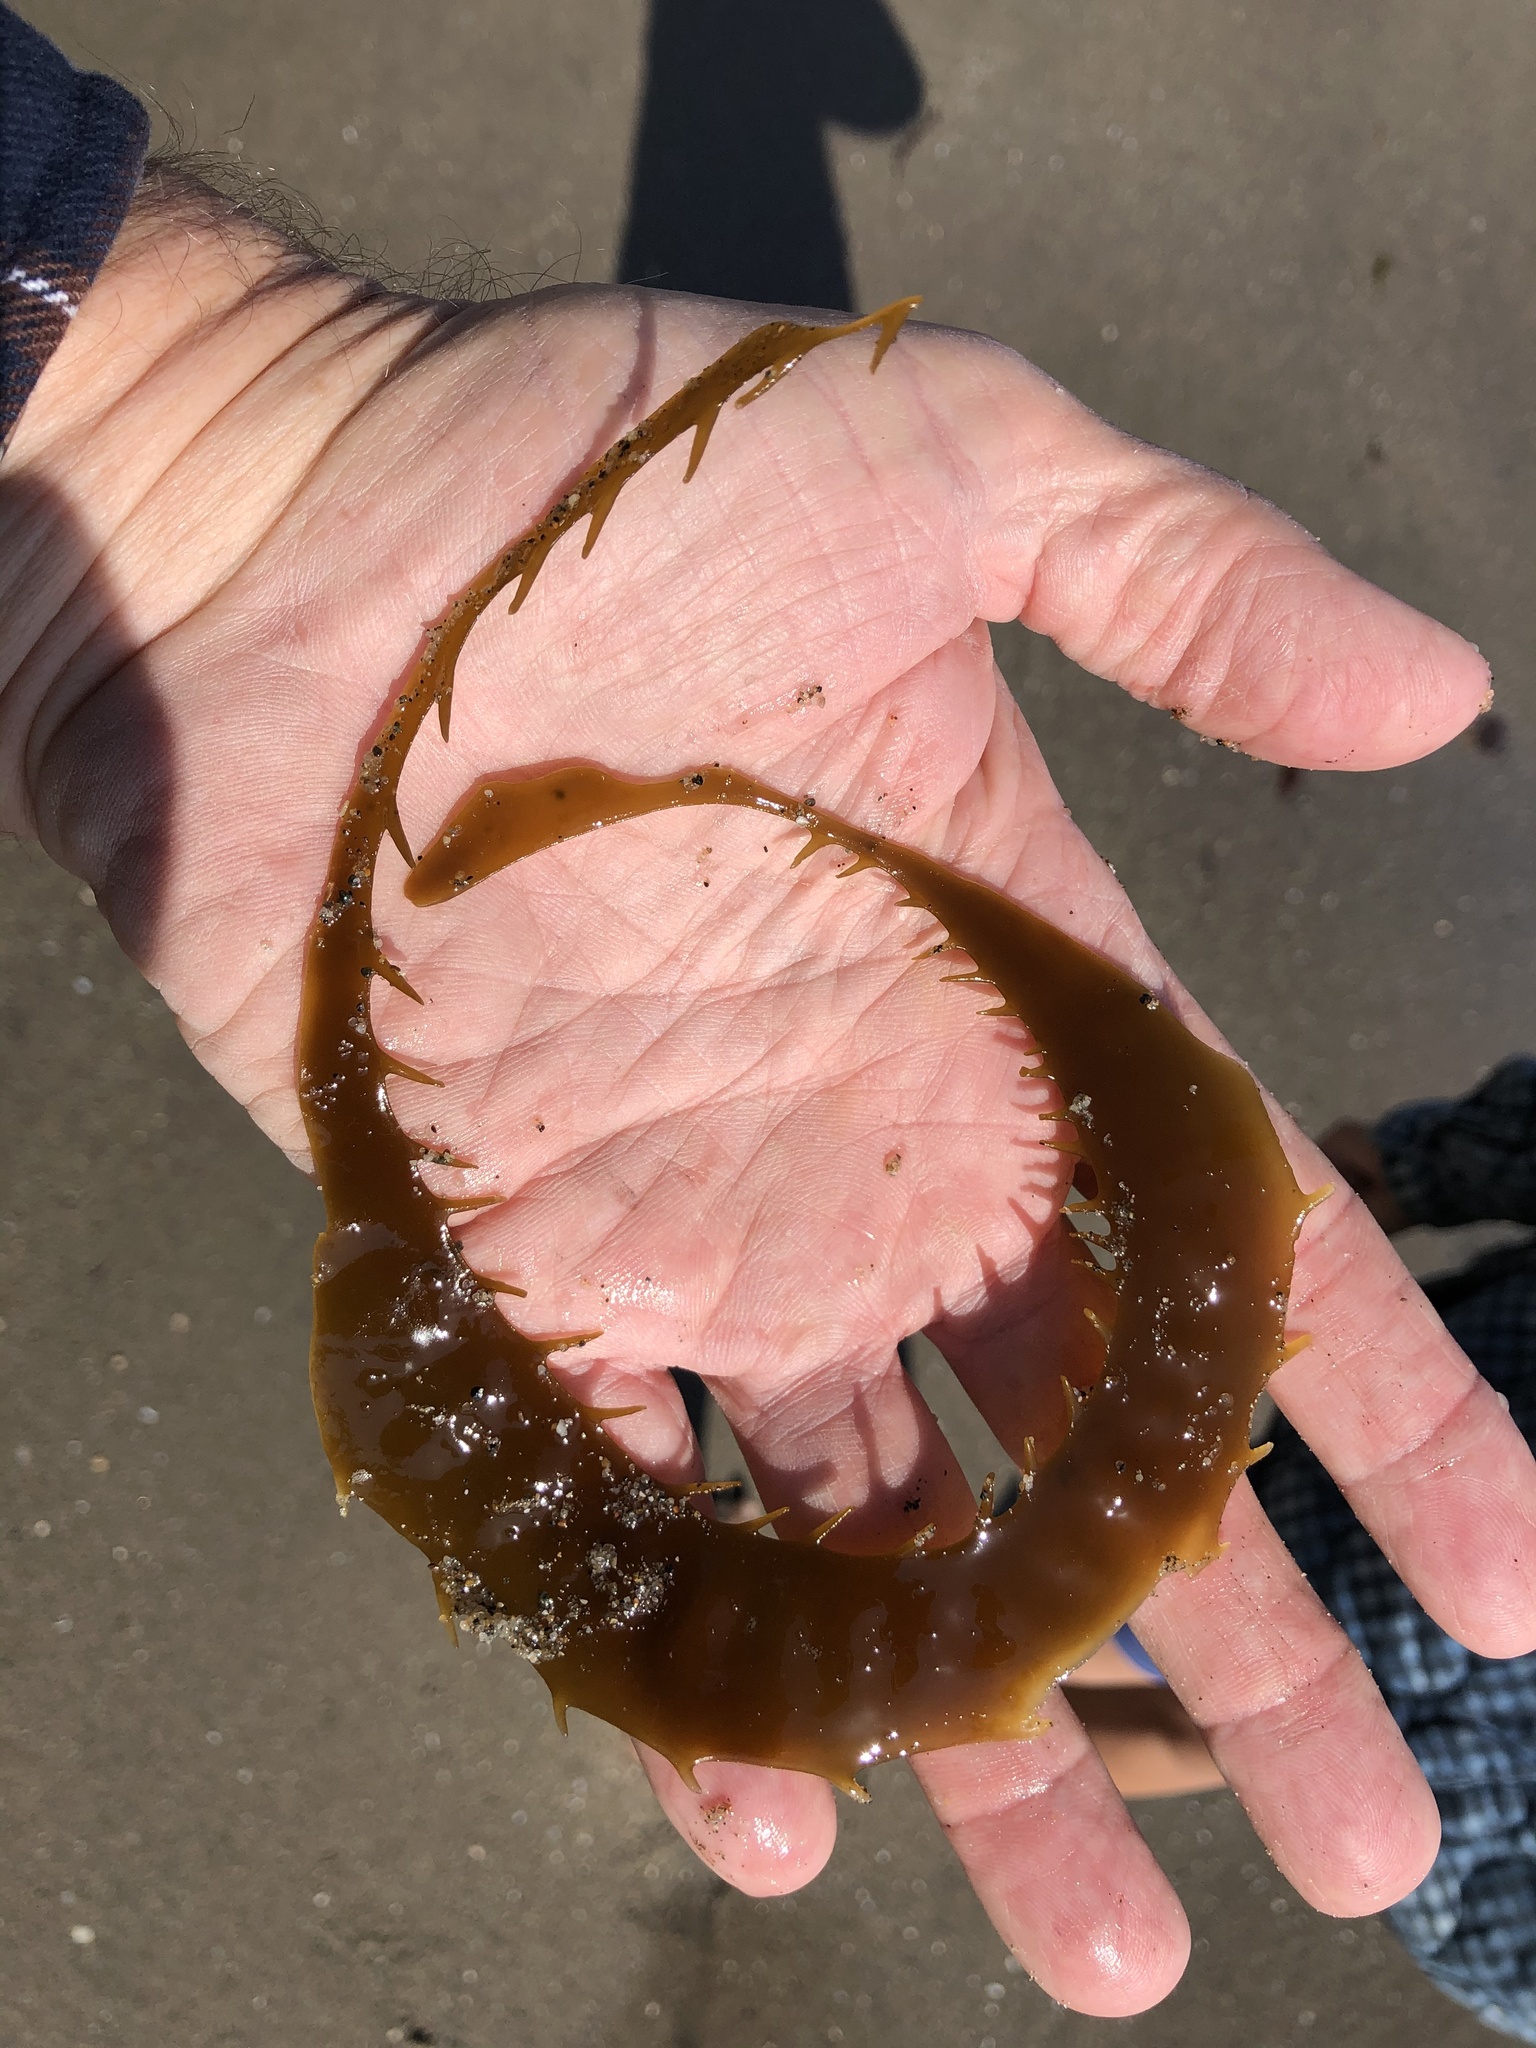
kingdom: Chromista
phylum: Ochrophyta
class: Phaeophyceae
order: Laminariales
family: Laminariaceae
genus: Macrocystis
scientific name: Macrocystis pyrifera
